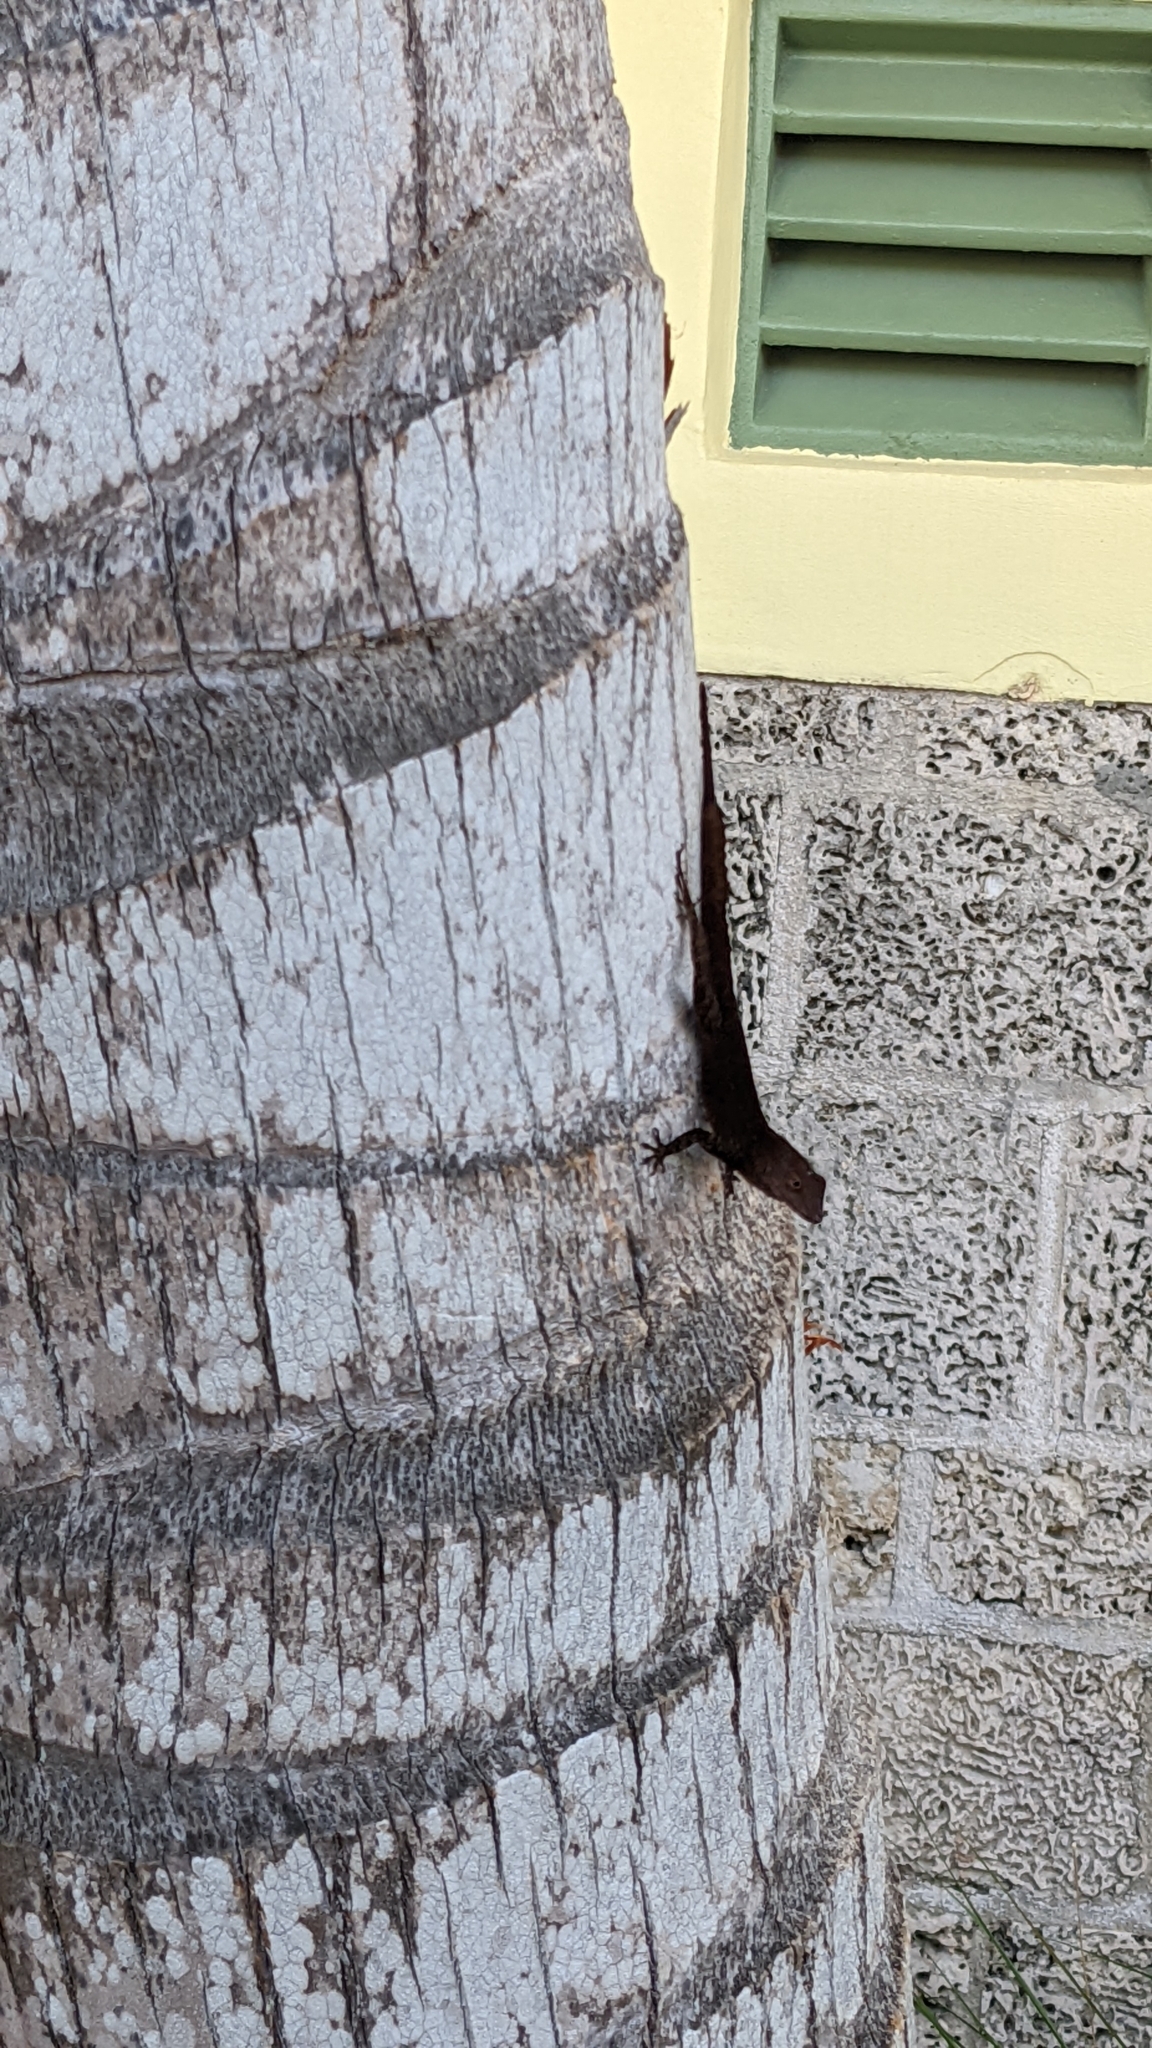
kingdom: Animalia
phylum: Chordata
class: Squamata
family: Dactyloidae
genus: Anolis
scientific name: Anolis cristatellus
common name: Crested anole
